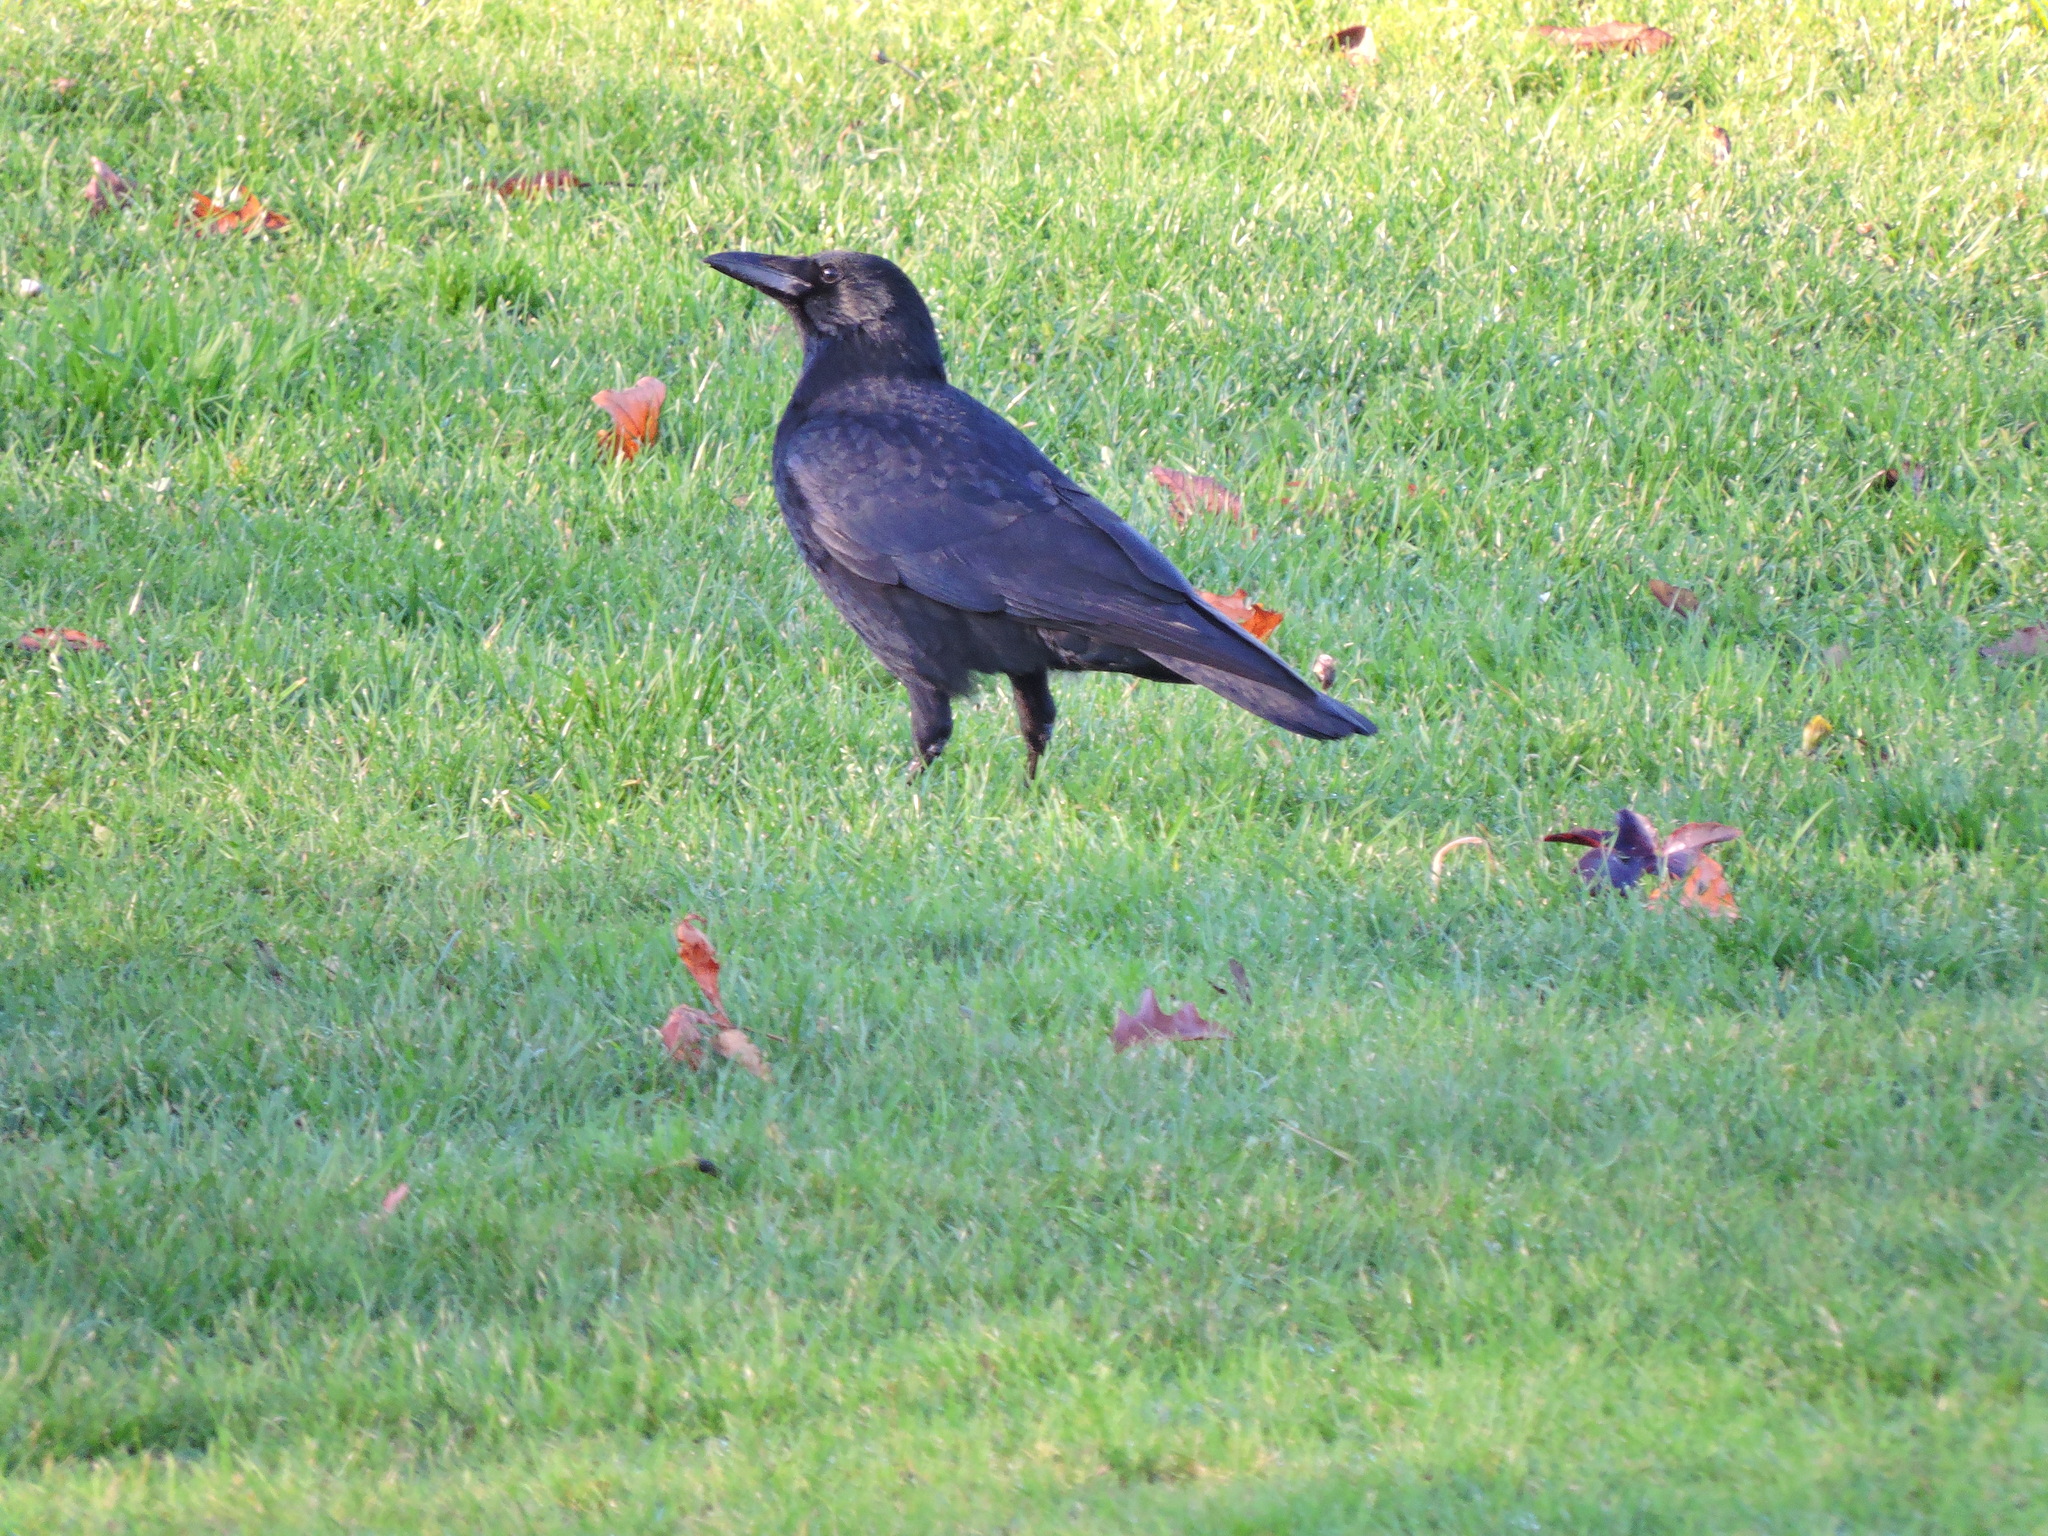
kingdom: Animalia
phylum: Chordata
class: Aves
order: Passeriformes
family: Corvidae
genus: Corvus
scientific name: Corvus corone
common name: Carrion crow
